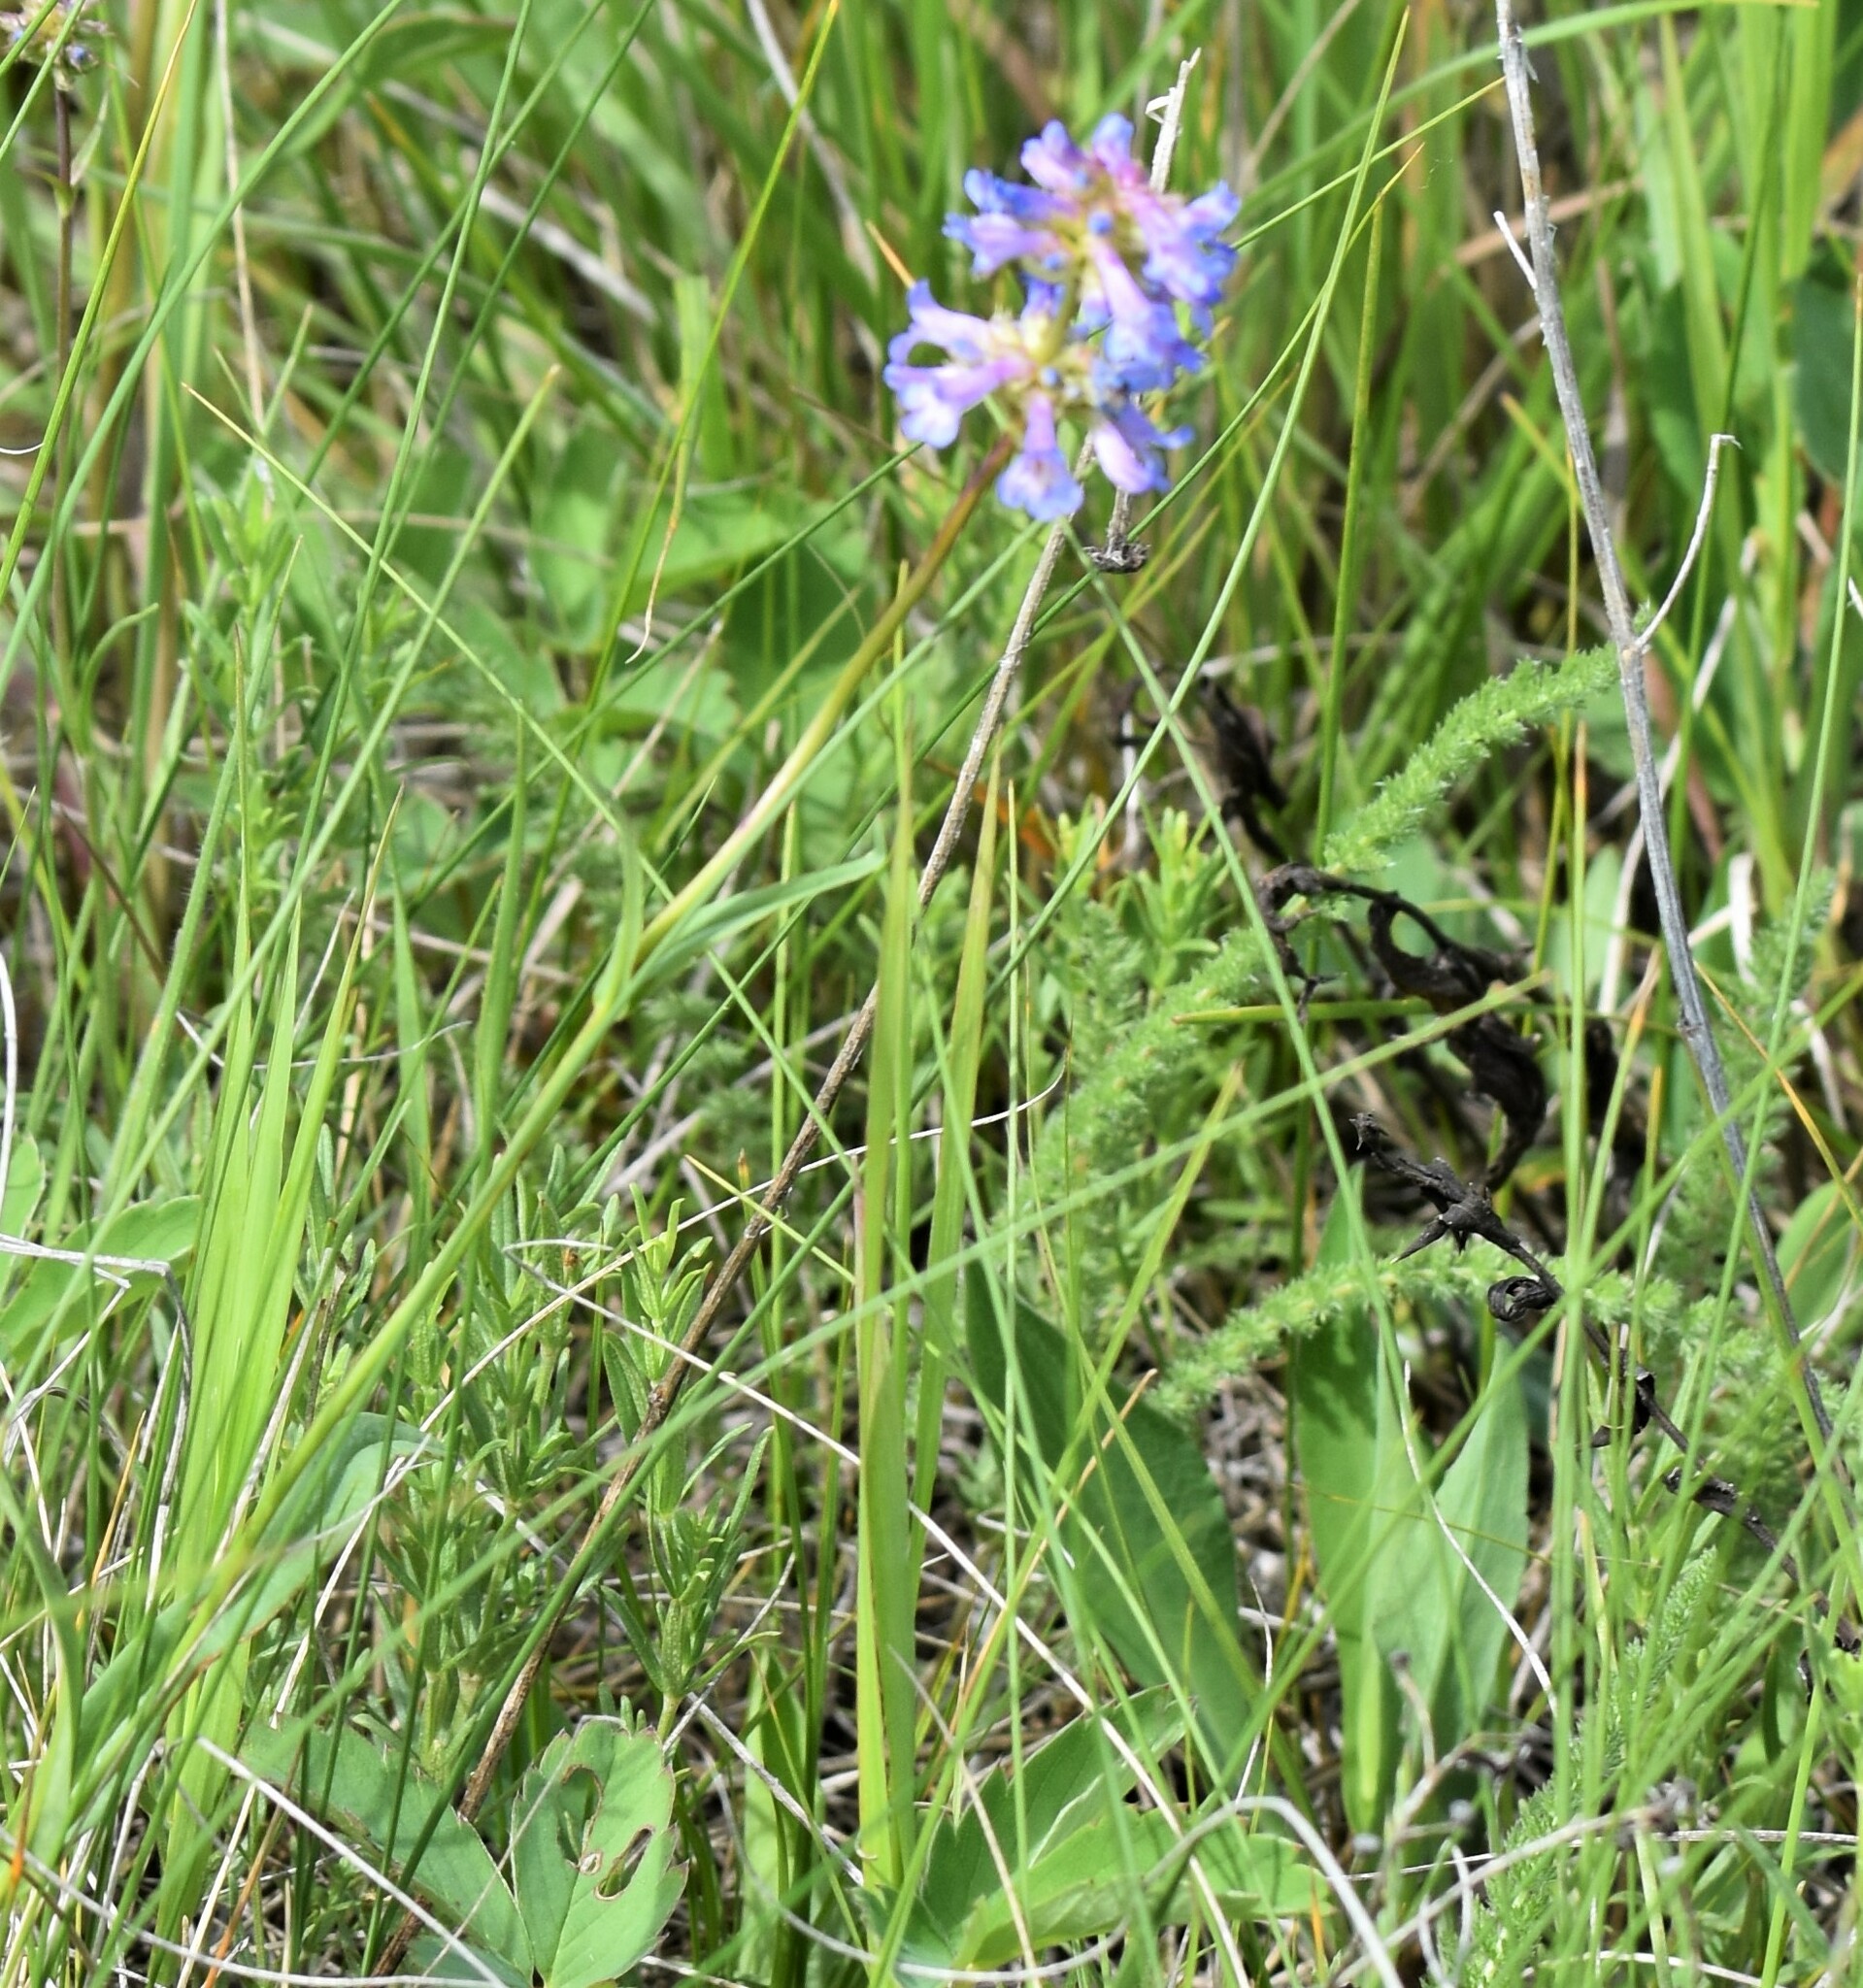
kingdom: Plantae
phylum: Tracheophyta
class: Magnoliopsida
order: Lamiales
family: Plantaginaceae
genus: Penstemon
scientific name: Penstemon procerus
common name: Small-flower penstemon
